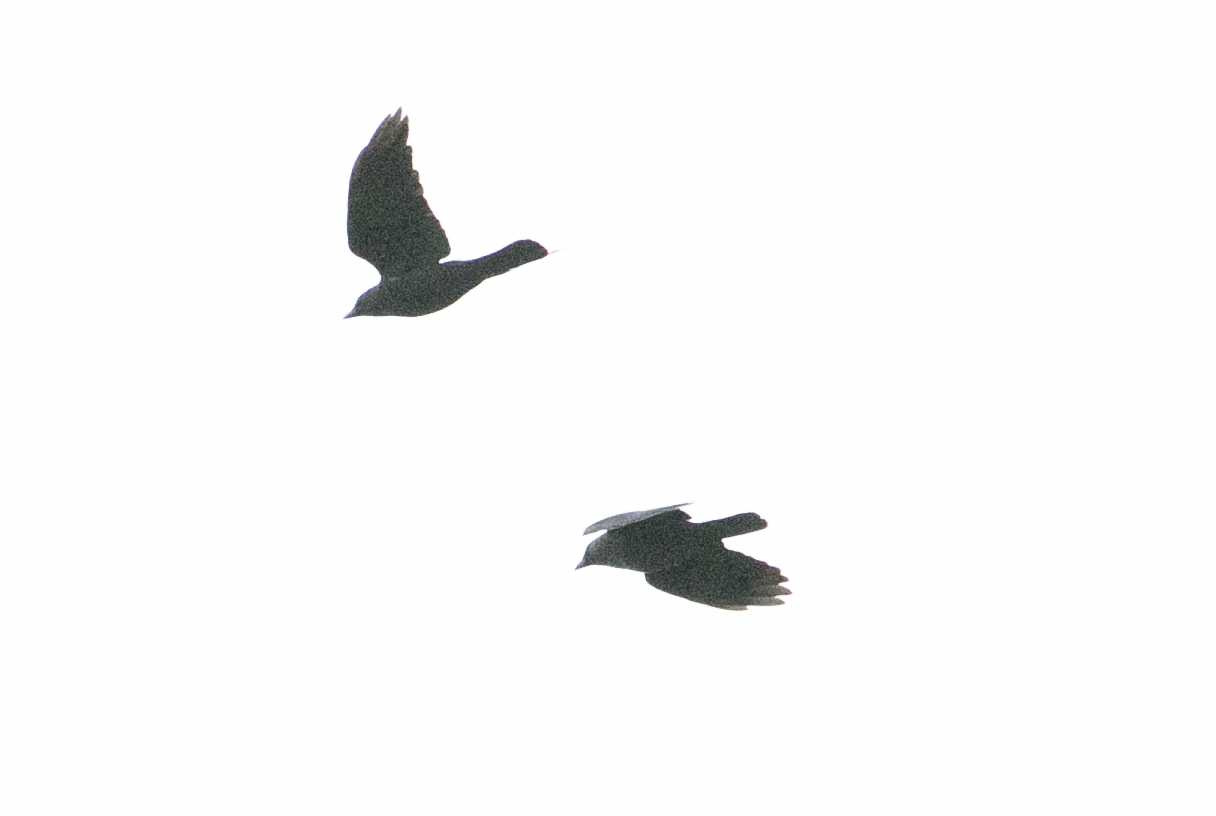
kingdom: Animalia
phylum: Chordata
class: Aves
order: Passeriformes
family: Corvidae
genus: Coloeus
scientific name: Coloeus monedula
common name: Western jackdaw
